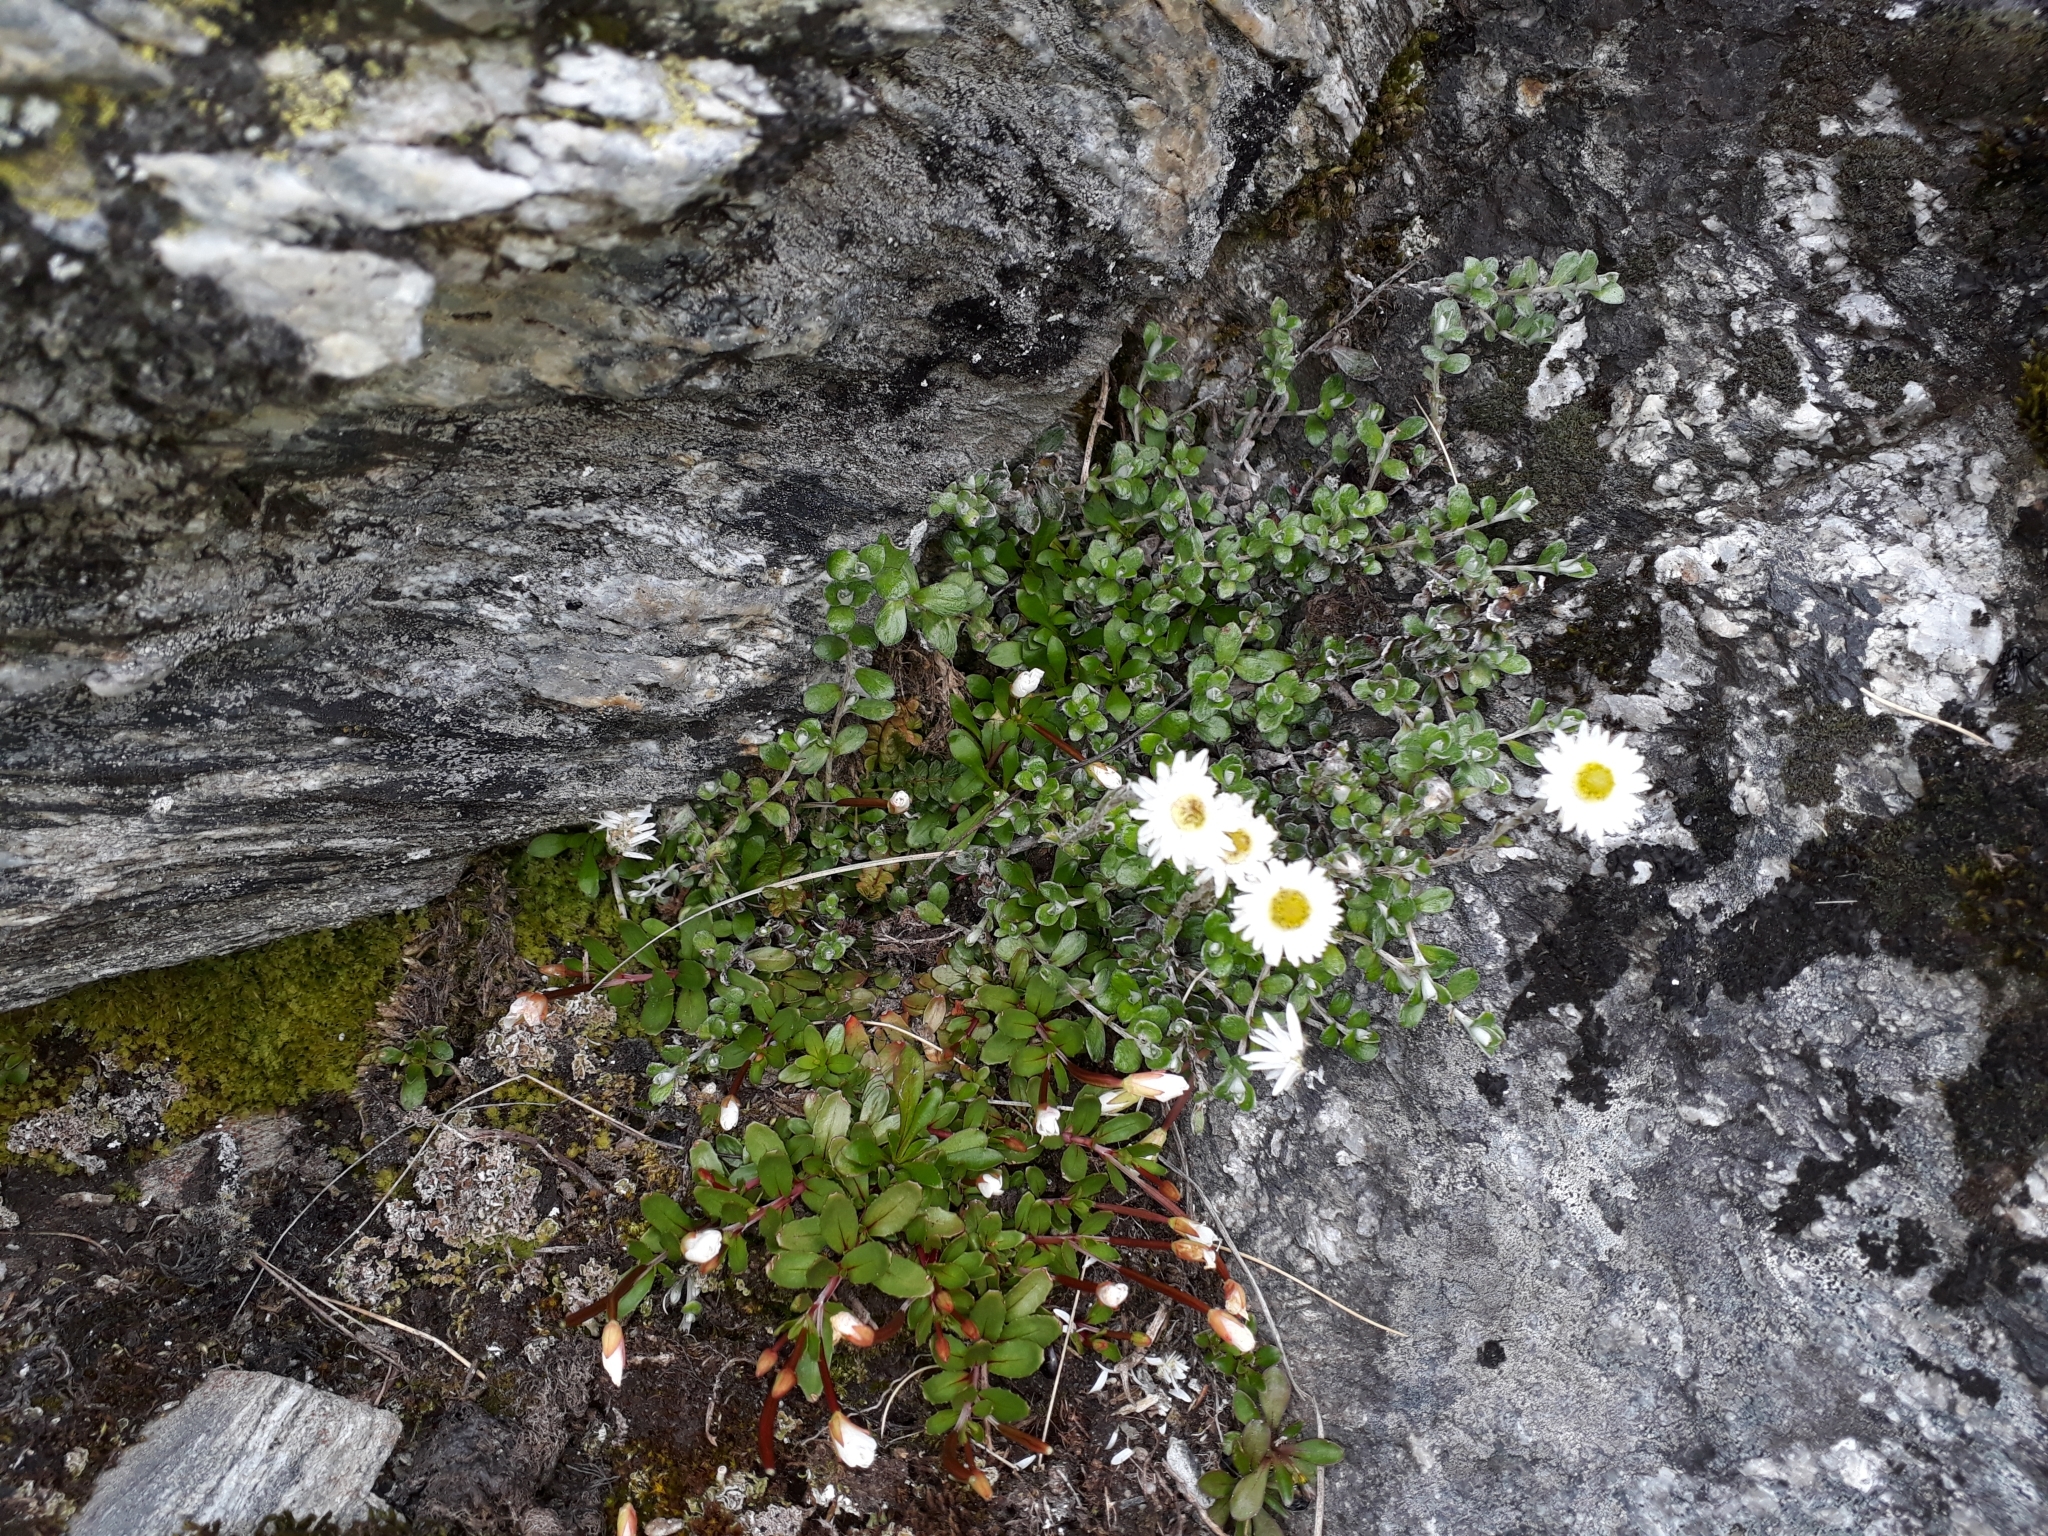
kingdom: Plantae
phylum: Tracheophyta
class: Magnoliopsida
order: Asterales
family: Asteraceae
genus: Anaphalioides
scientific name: Anaphalioides bellidioides
